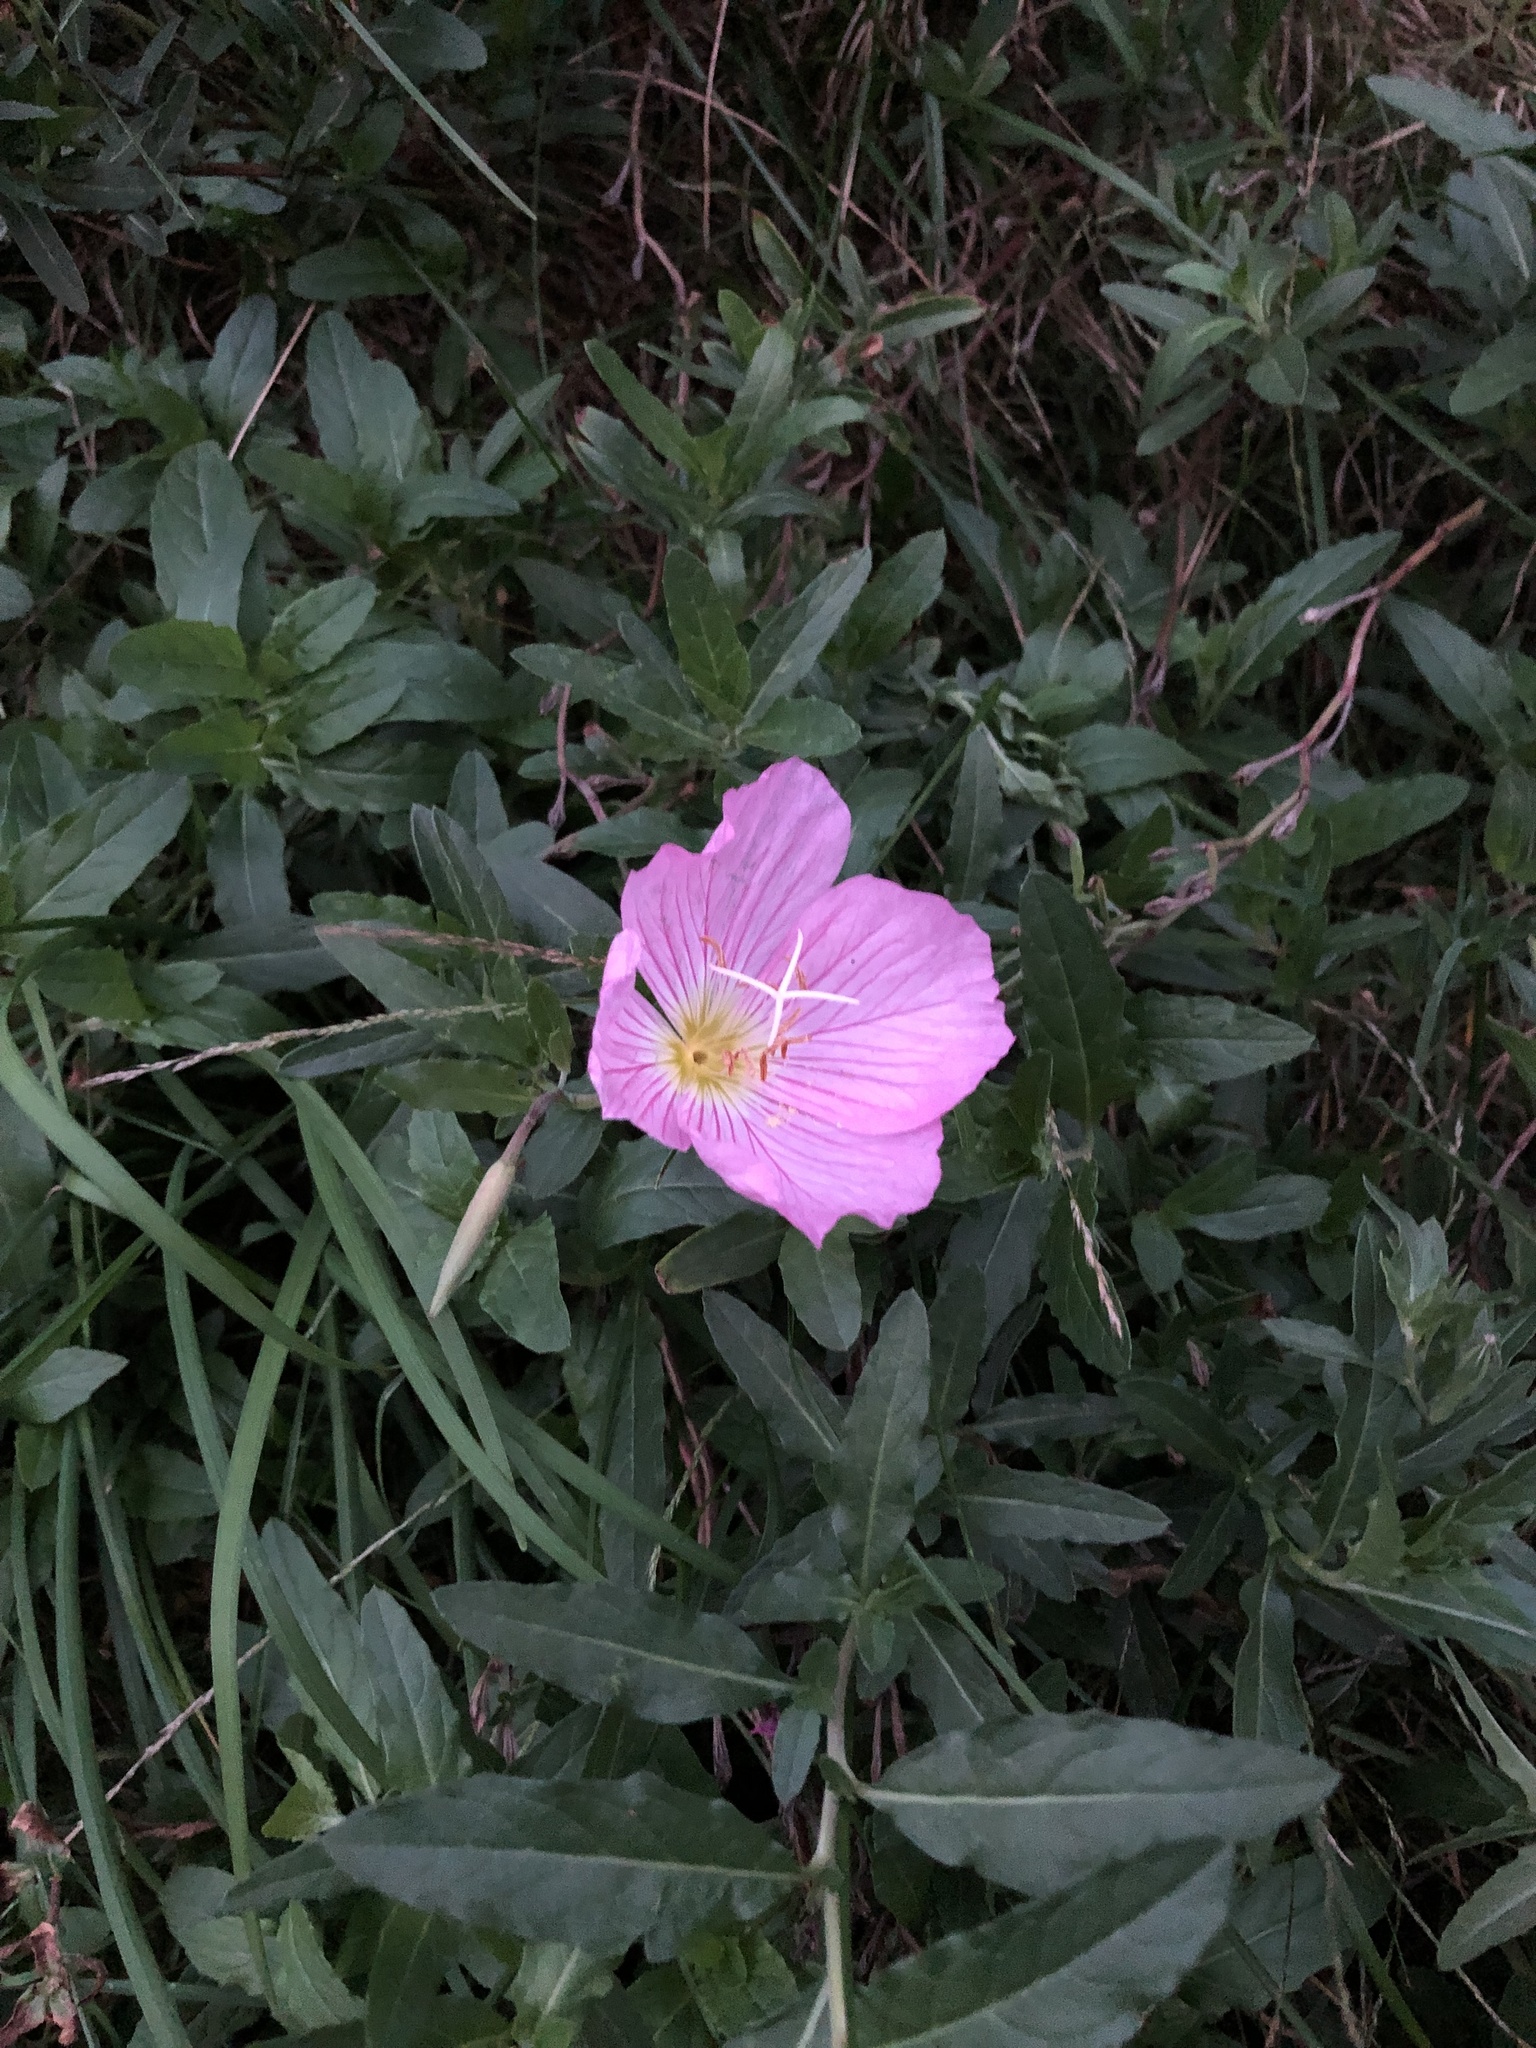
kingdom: Plantae
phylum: Tracheophyta
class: Magnoliopsida
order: Myrtales
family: Onagraceae
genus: Oenothera
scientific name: Oenothera speciosa
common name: White evening-primrose
